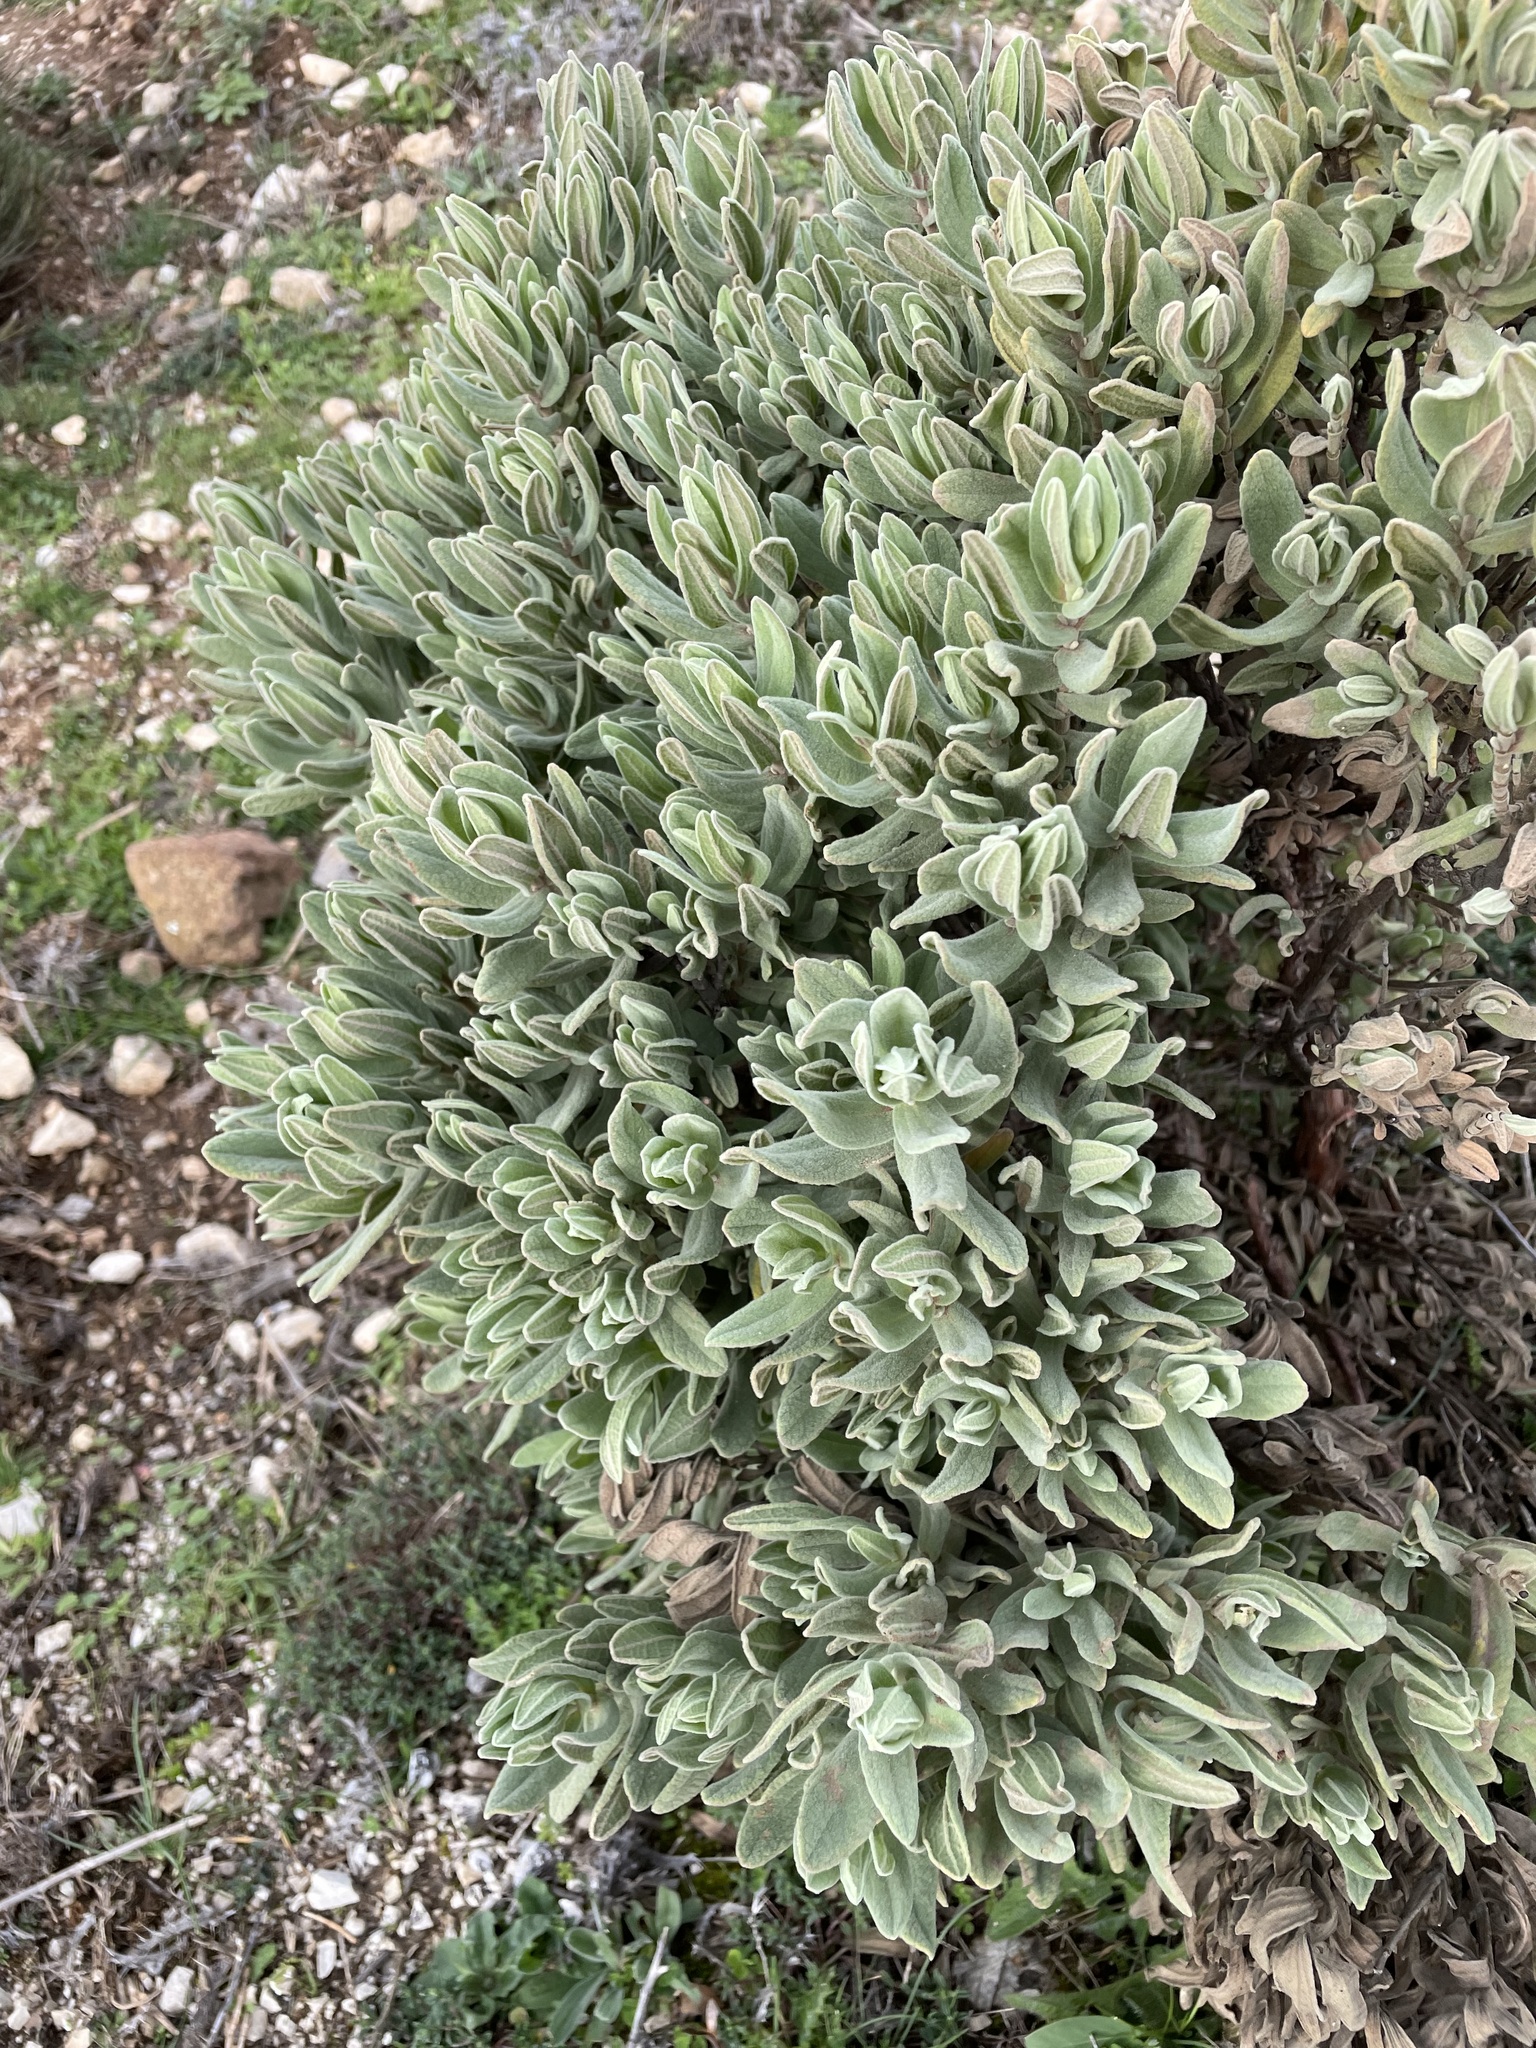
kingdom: Plantae
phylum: Tracheophyta
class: Magnoliopsida
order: Malvales
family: Cistaceae
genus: Cistus
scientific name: Cistus albidus
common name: White-leaf rock-rose
